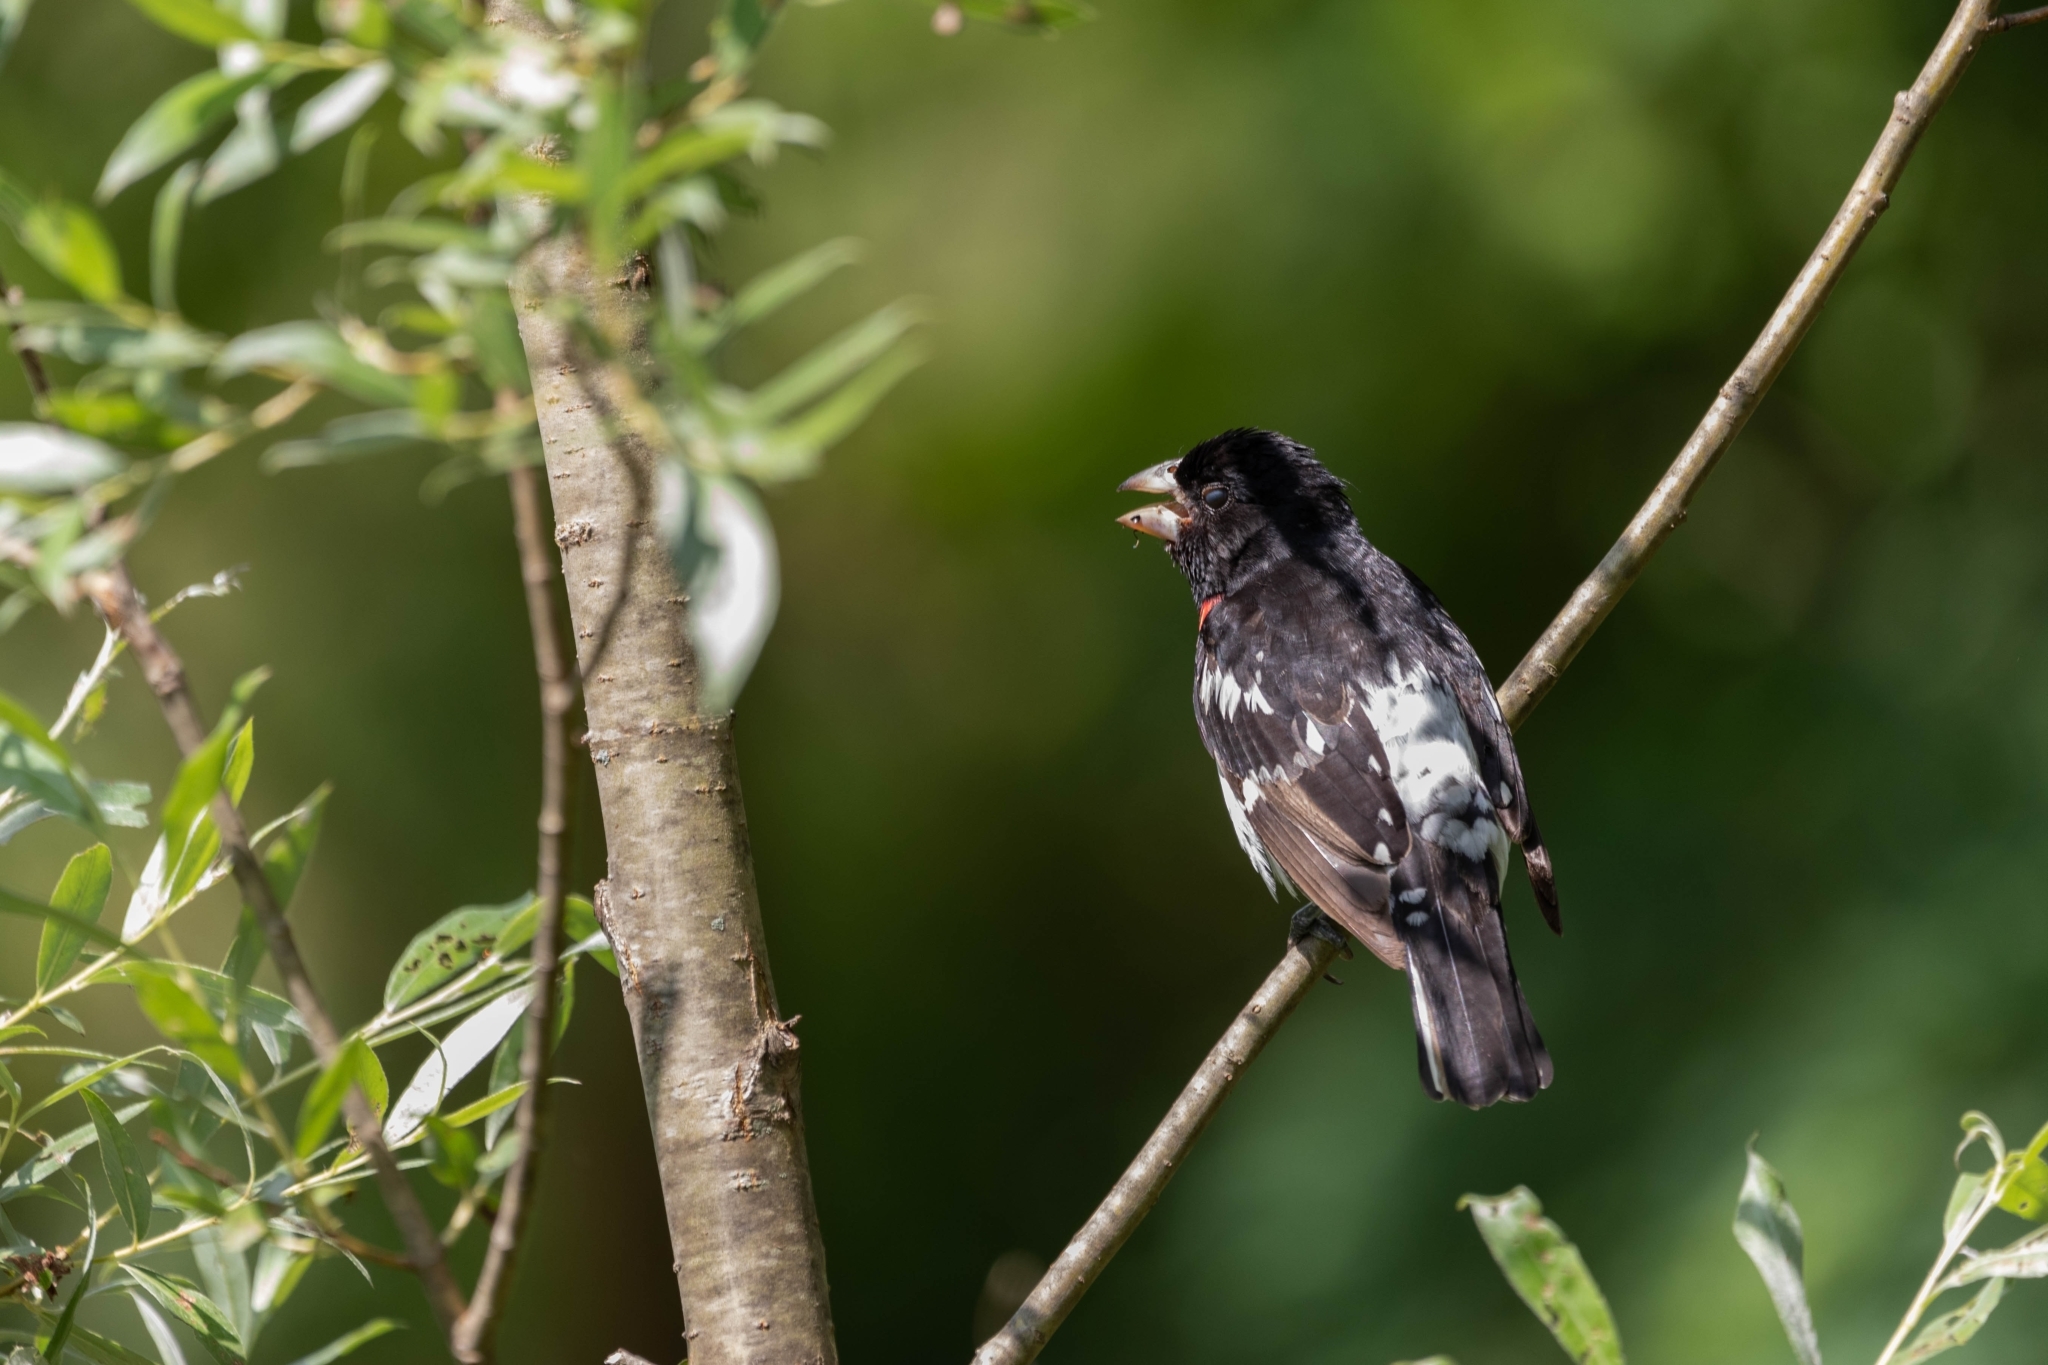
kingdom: Animalia
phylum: Chordata
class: Aves
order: Passeriformes
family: Cardinalidae
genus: Pheucticus
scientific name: Pheucticus ludovicianus
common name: Rose-breasted grosbeak
